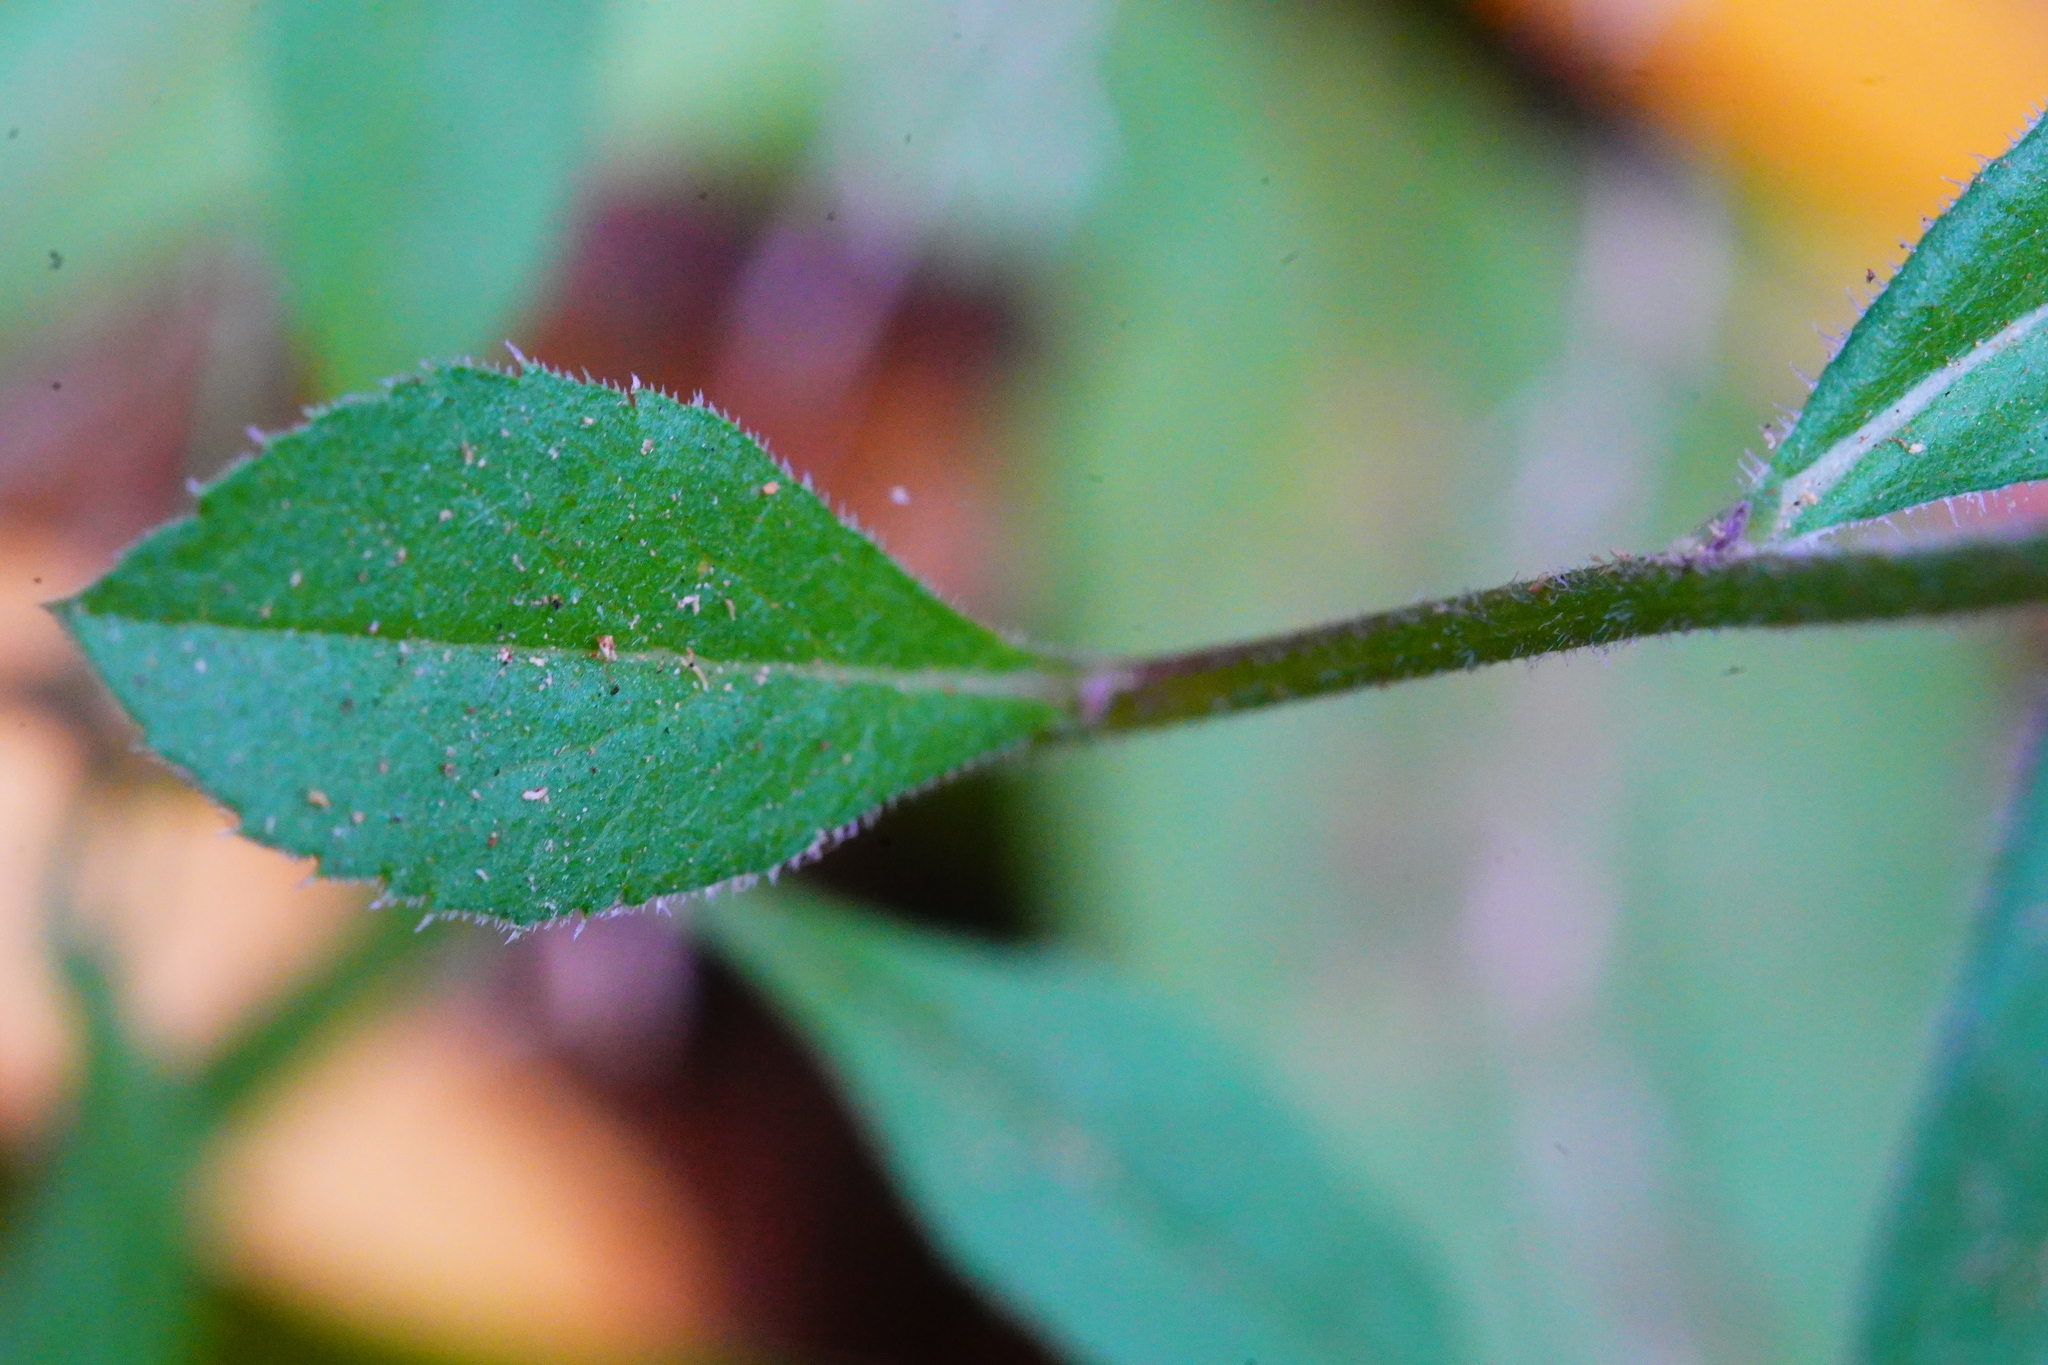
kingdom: Plantae
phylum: Tracheophyta
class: Magnoliopsida
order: Asterales
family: Asteraceae
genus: Eurybia
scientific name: Eurybia radulina
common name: Rough-leaved aster
